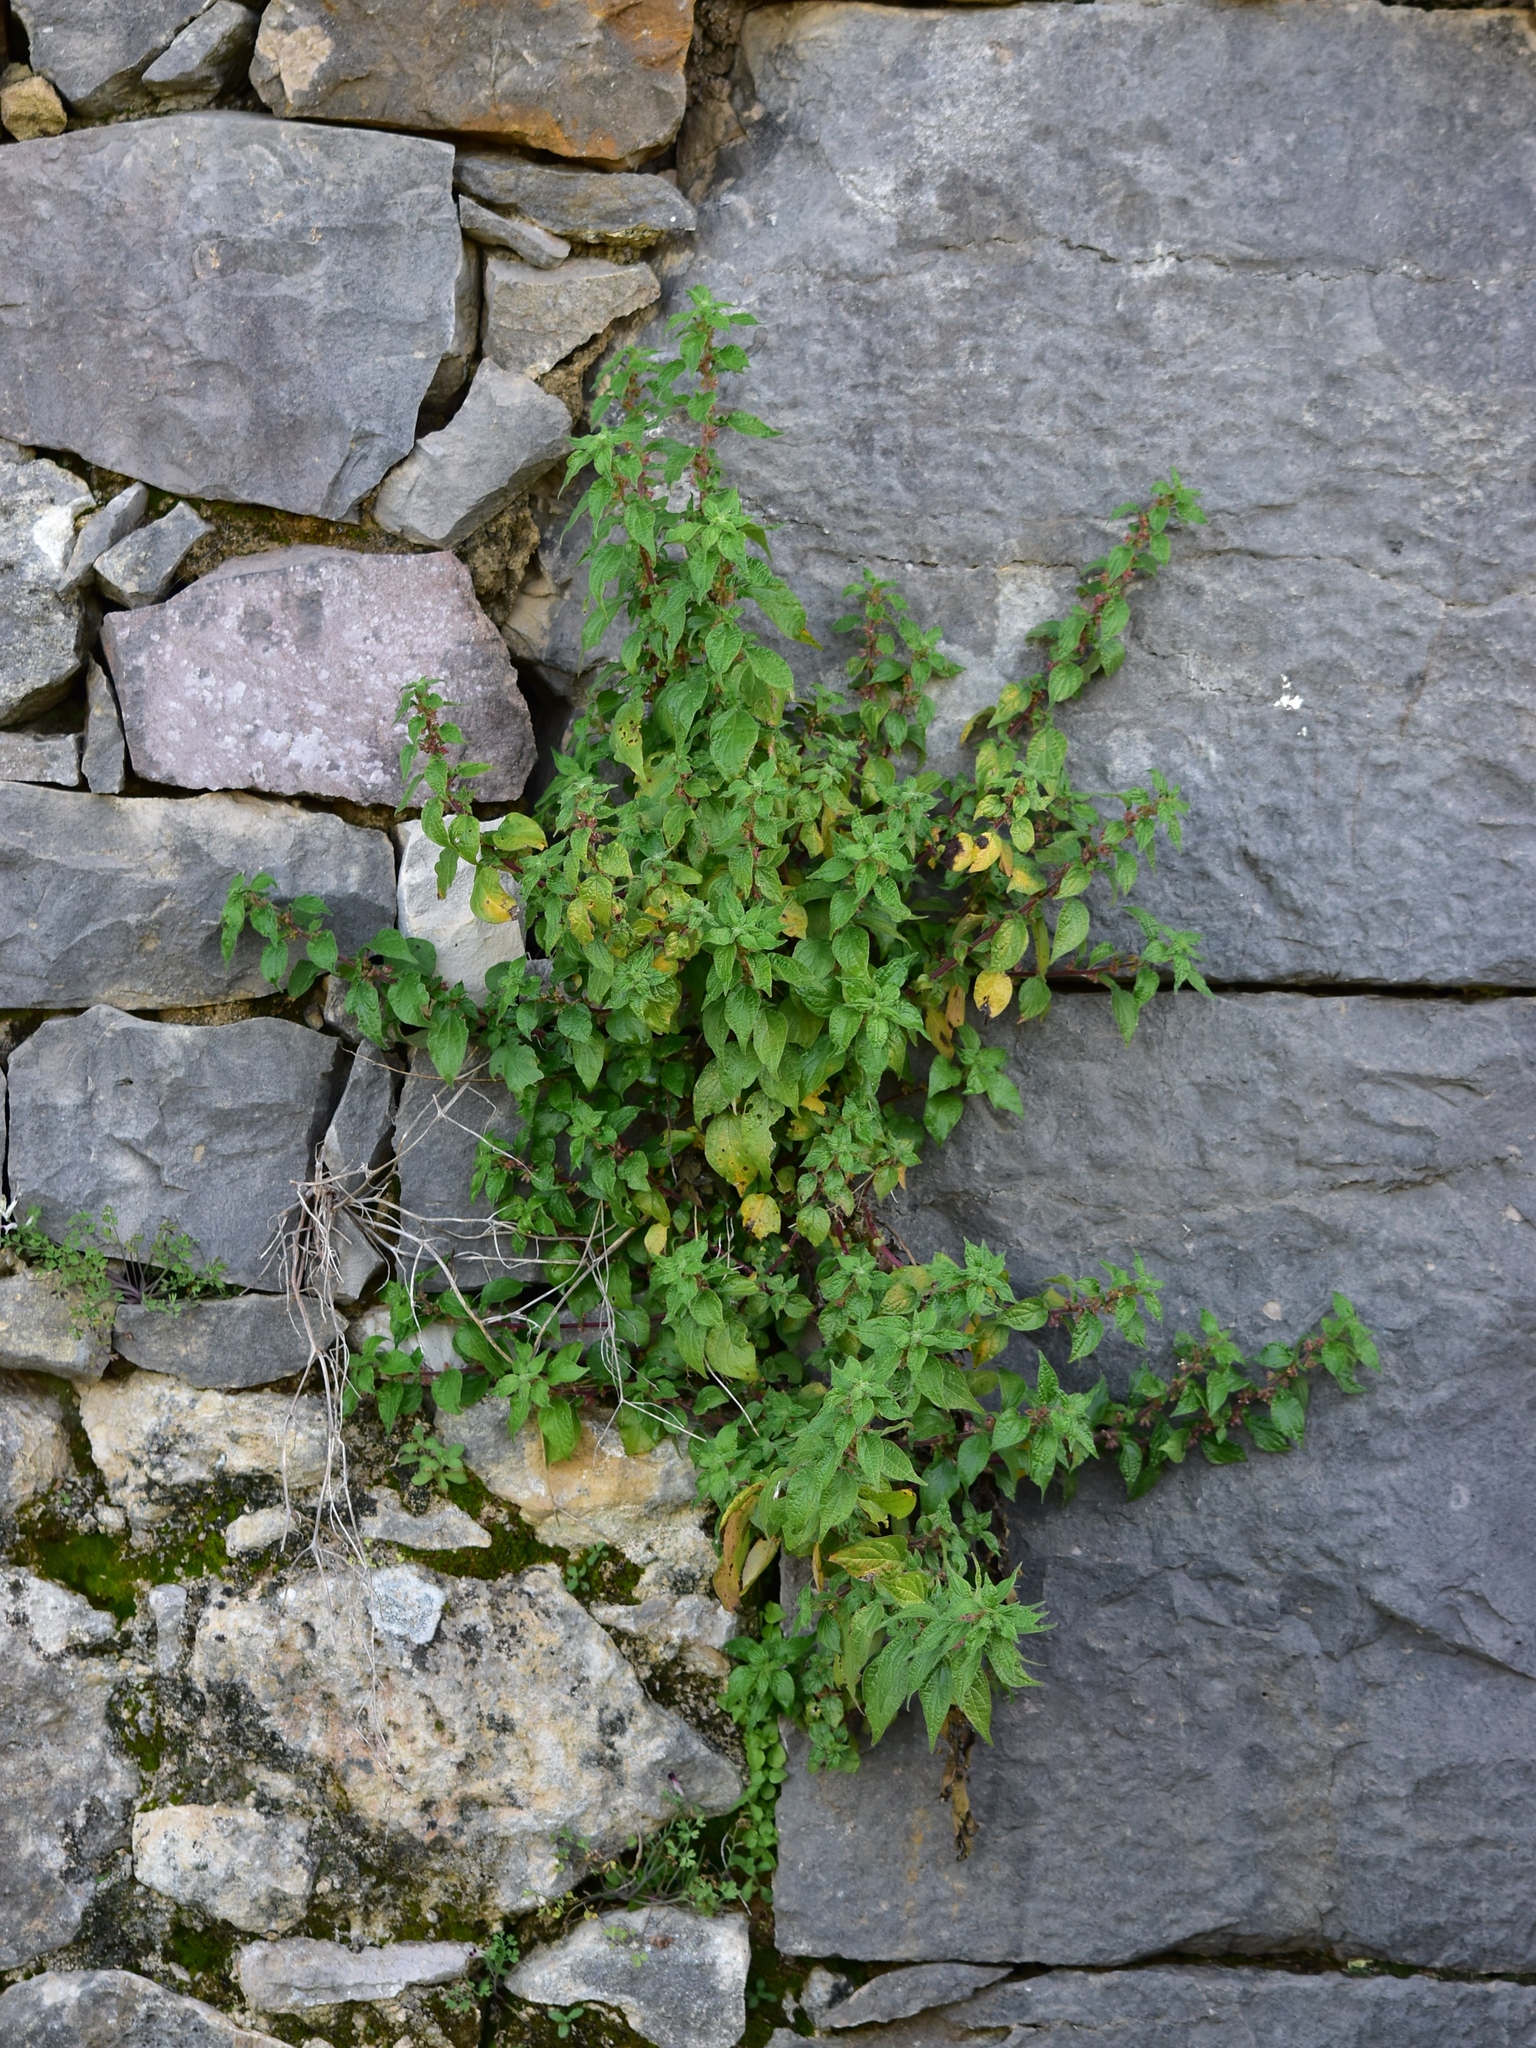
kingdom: Plantae
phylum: Tracheophyta
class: Magnoliopsida
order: Rosales
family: Urticaceae
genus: Parietaria
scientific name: Parietaria judaica
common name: Pellitory-of-the-wall
